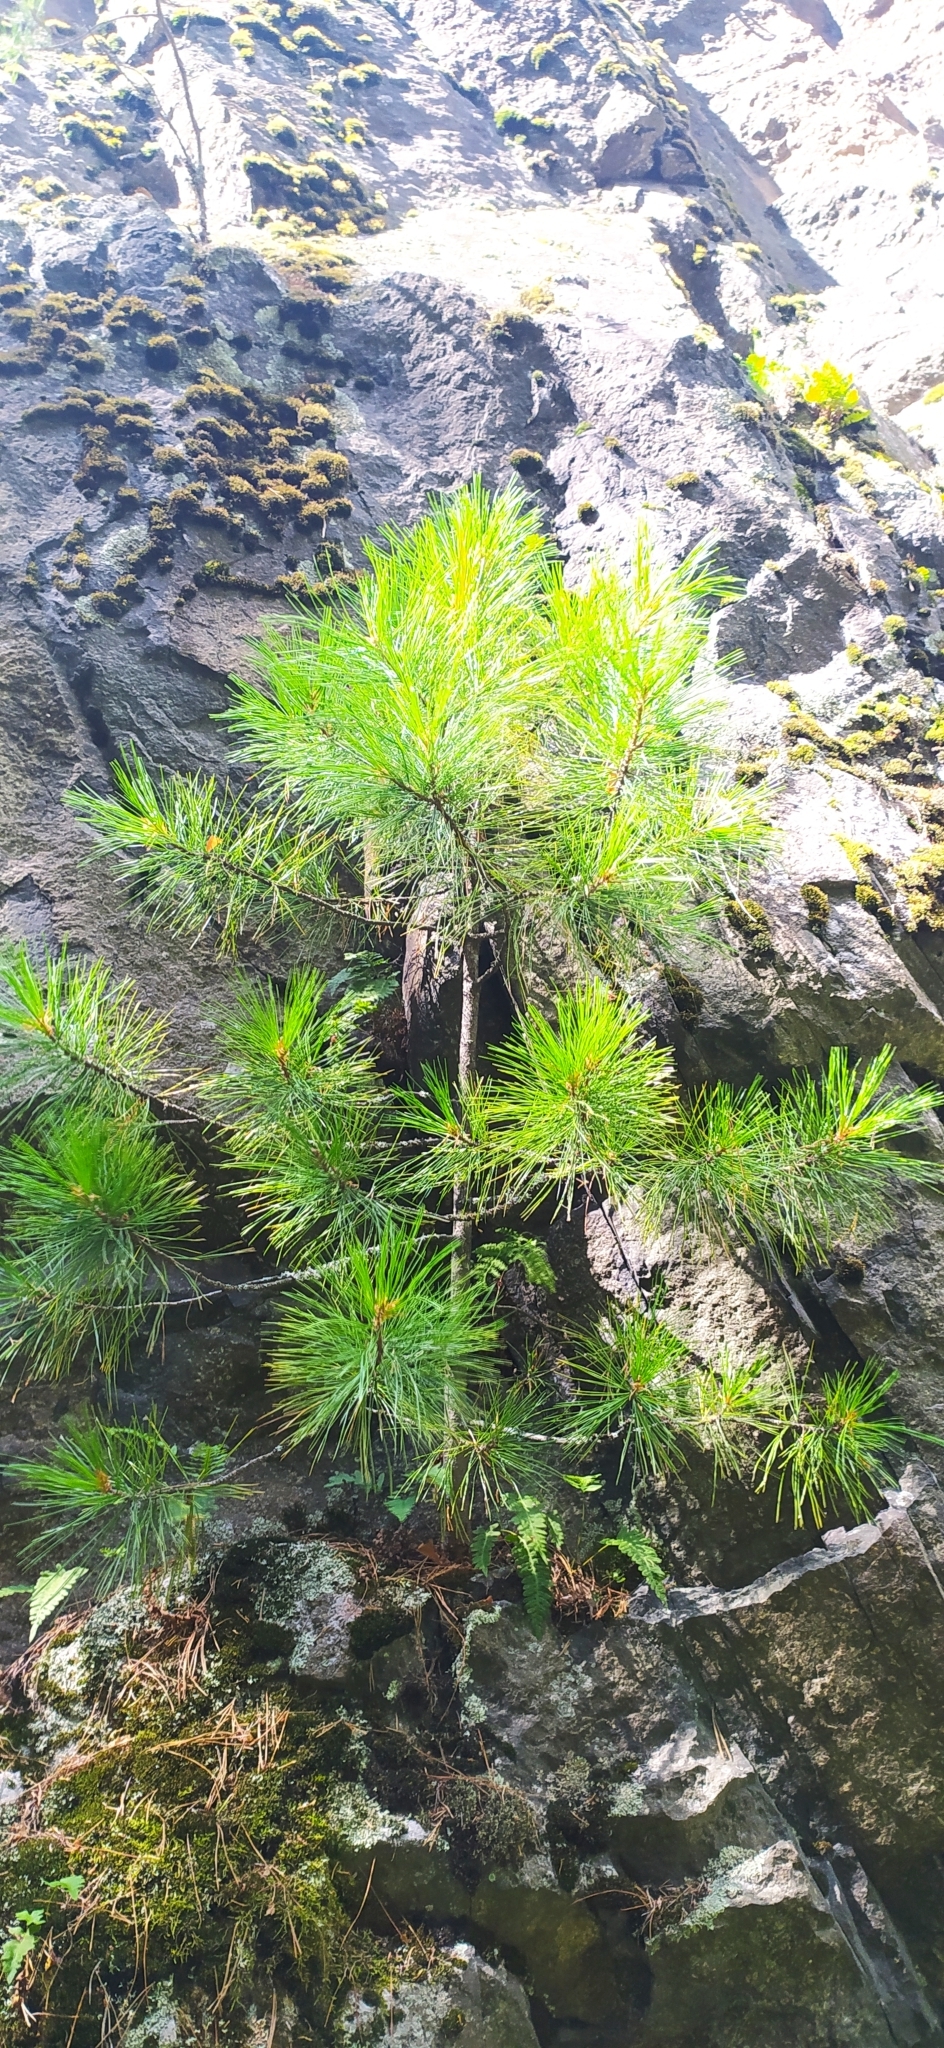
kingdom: Plantae
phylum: Tracheophyta
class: Pinopsida
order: Pinales
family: Pinaceae
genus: Pinus
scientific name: Pinus sibirica
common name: Siberian pine
